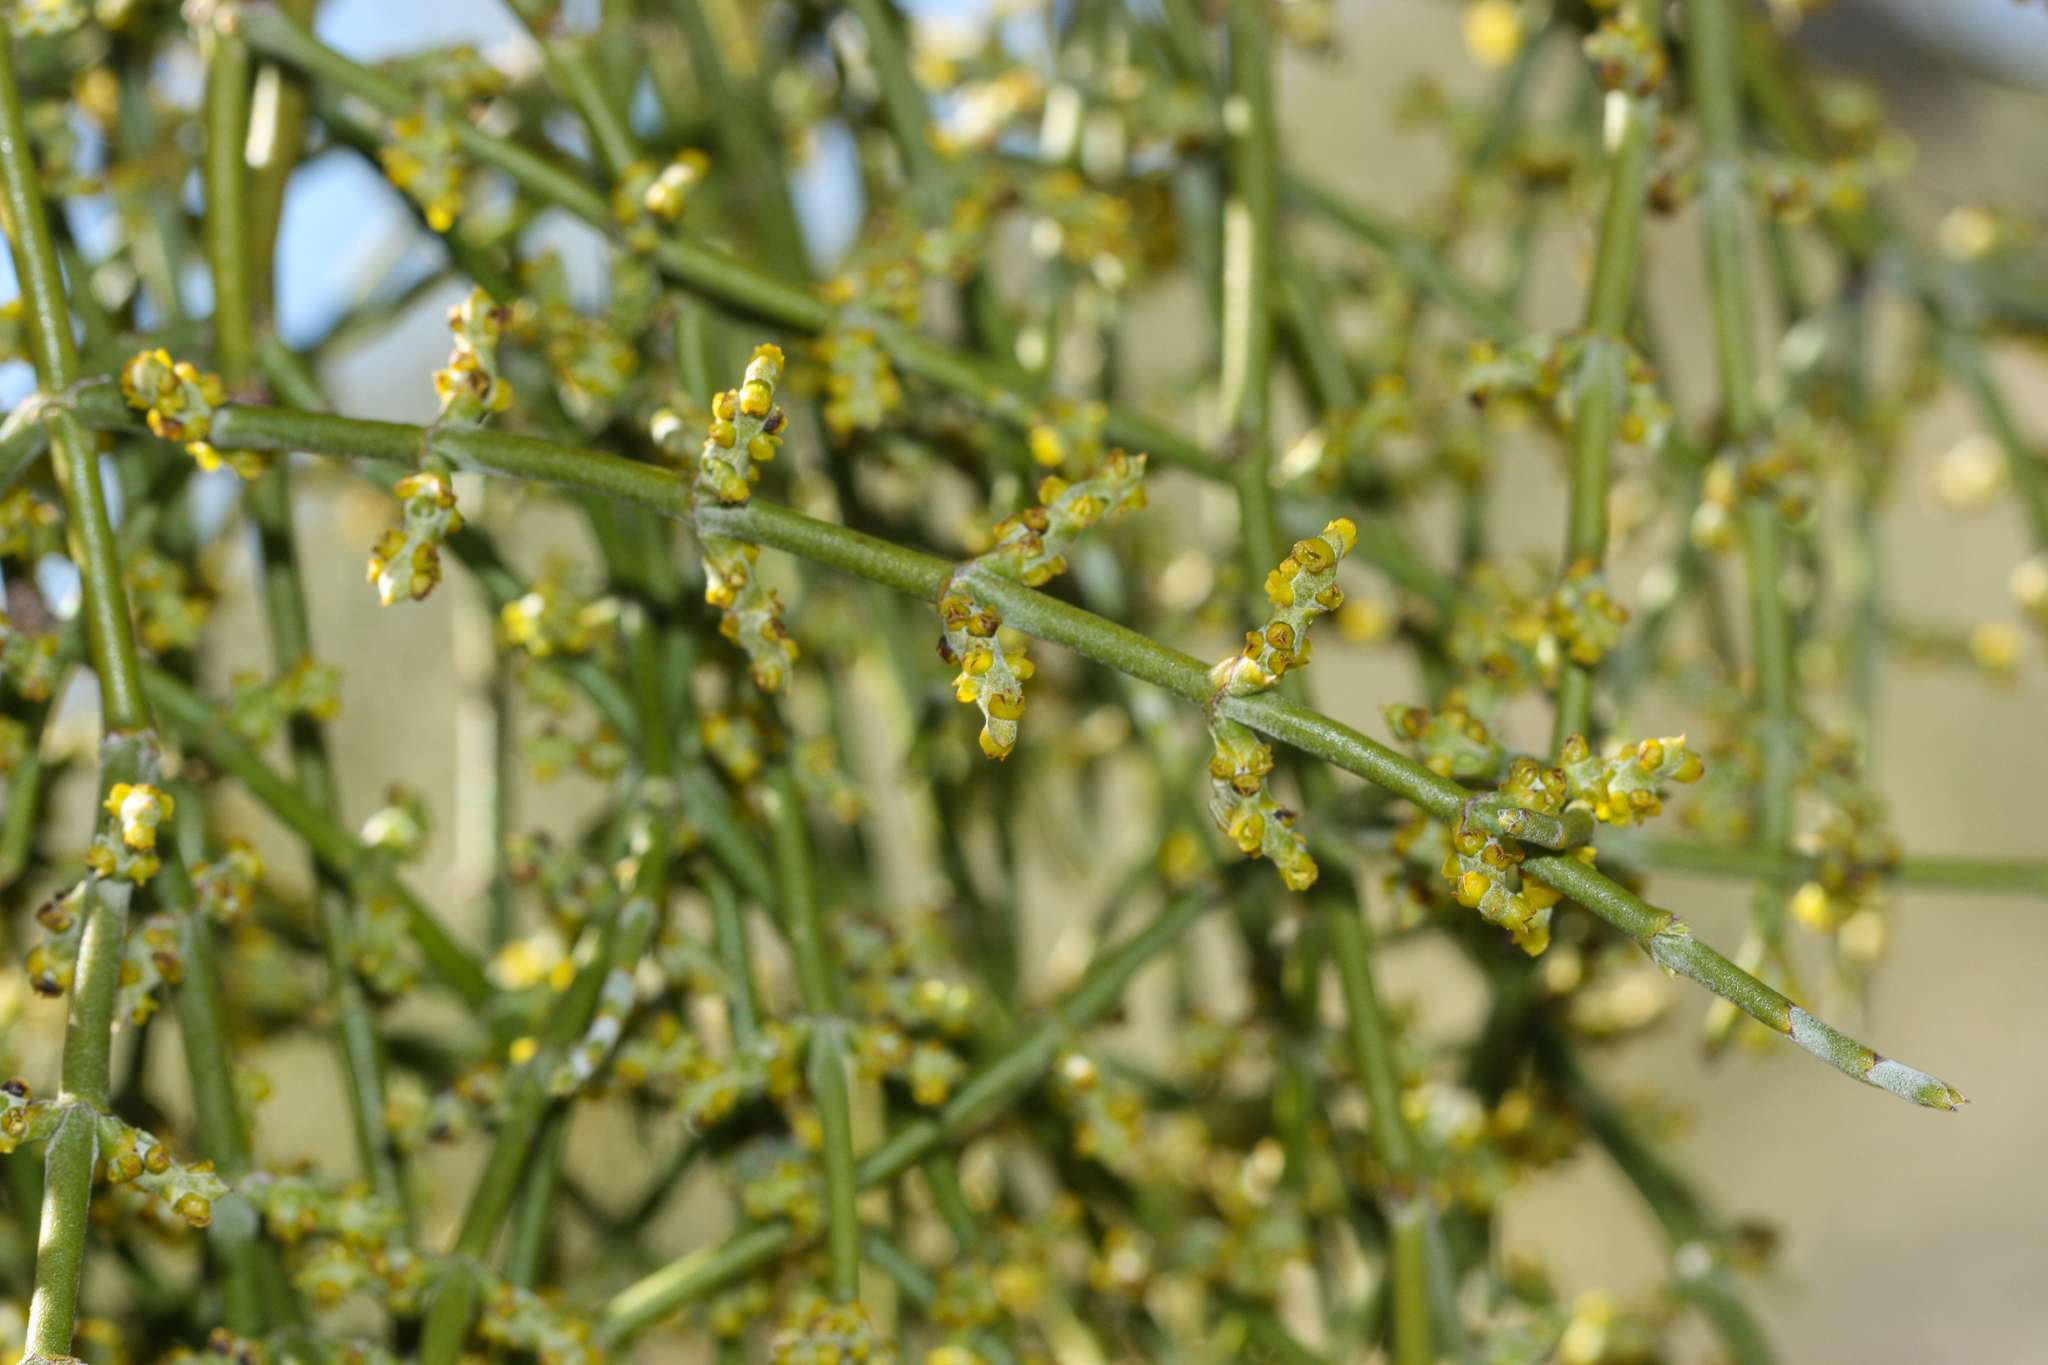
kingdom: Plantae
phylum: Tracheophyta
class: Magnoliopsida
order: Santalales
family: Viscaceae
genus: Phoradendron
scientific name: Phoradendron californicum
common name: Acacia mistletoe
